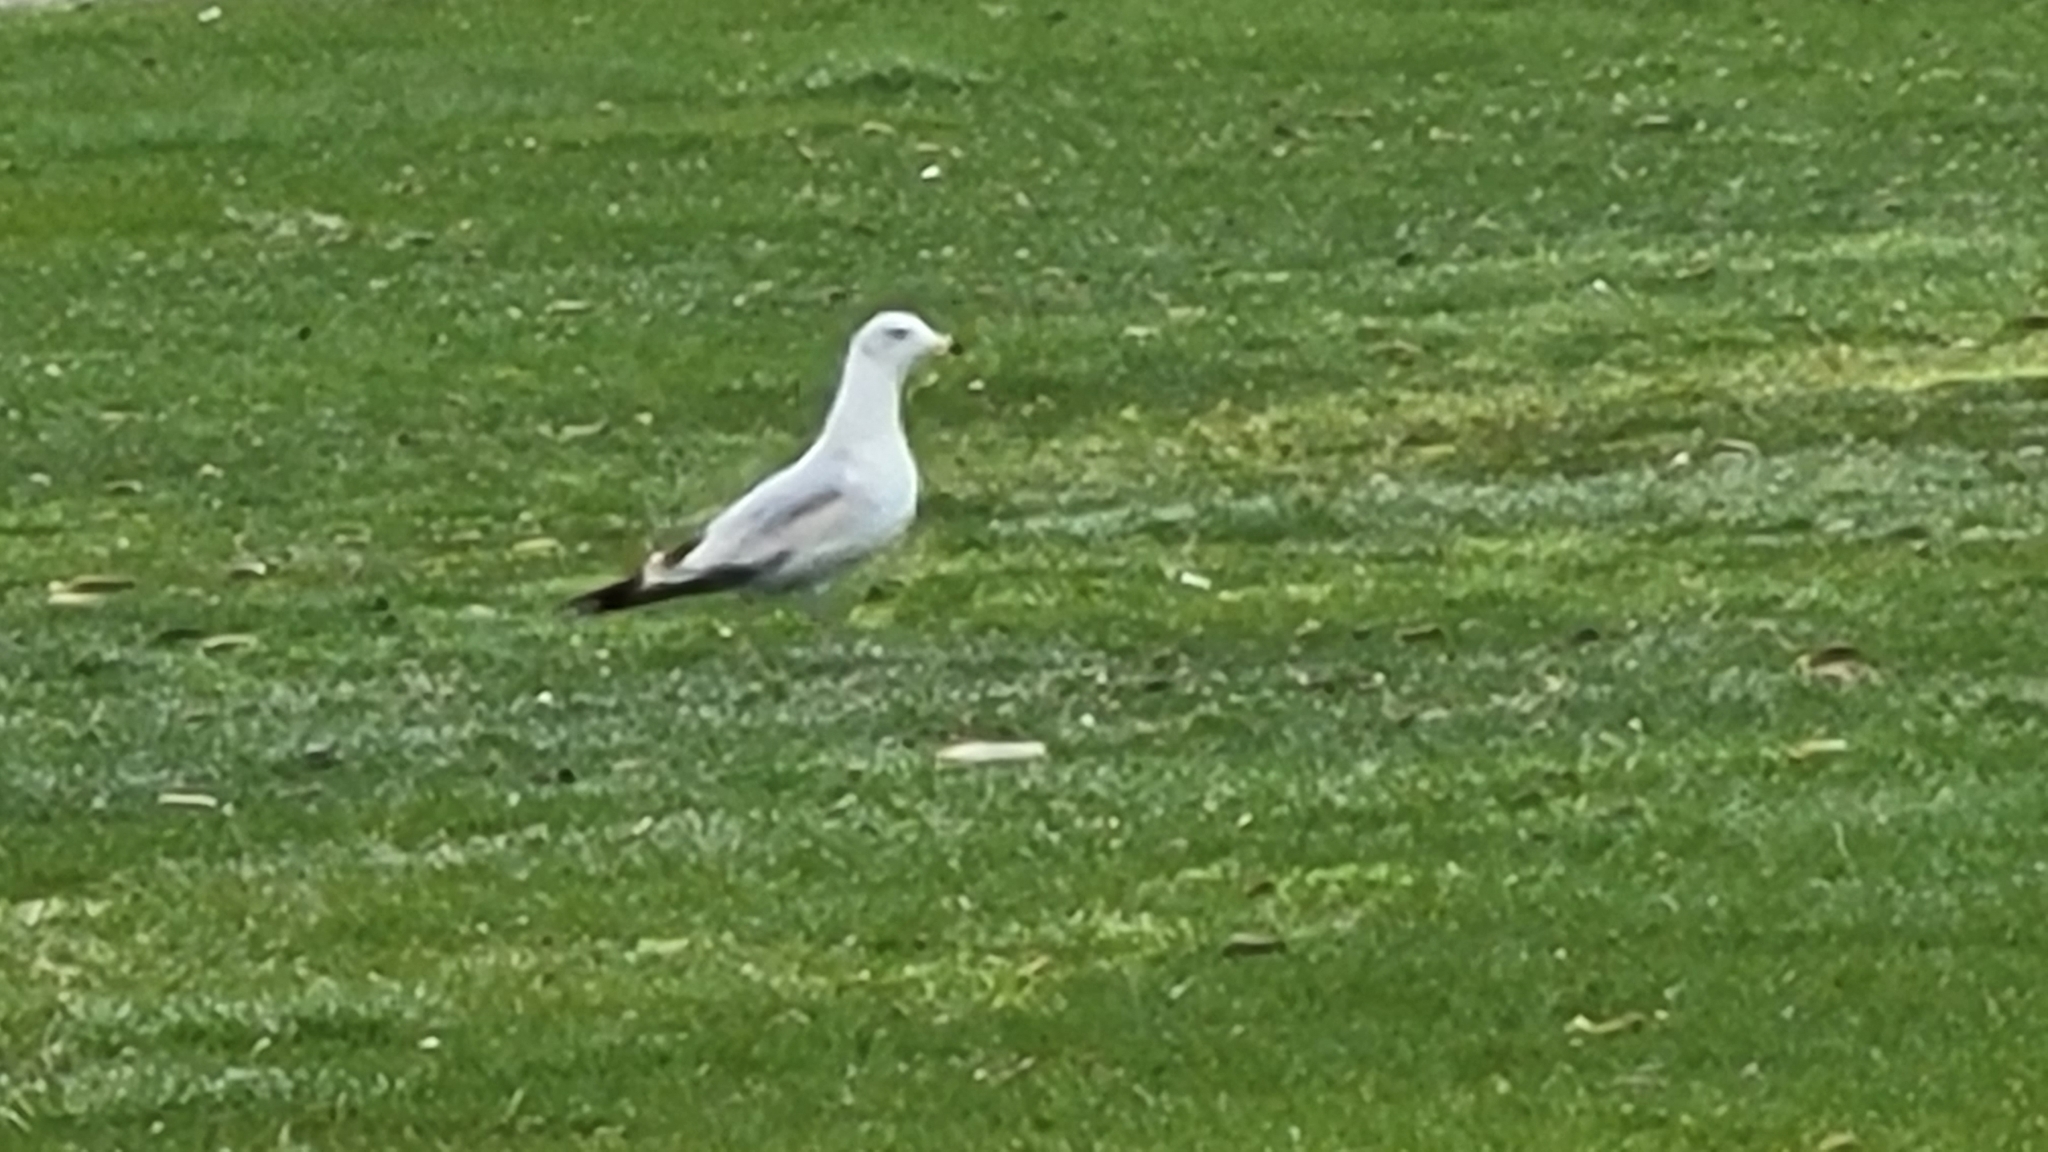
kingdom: Animalia
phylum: Chordata
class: Aves
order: Charadriiformes
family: Laridae
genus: Larus
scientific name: Larus delawarensis
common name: Ring-billed gull
